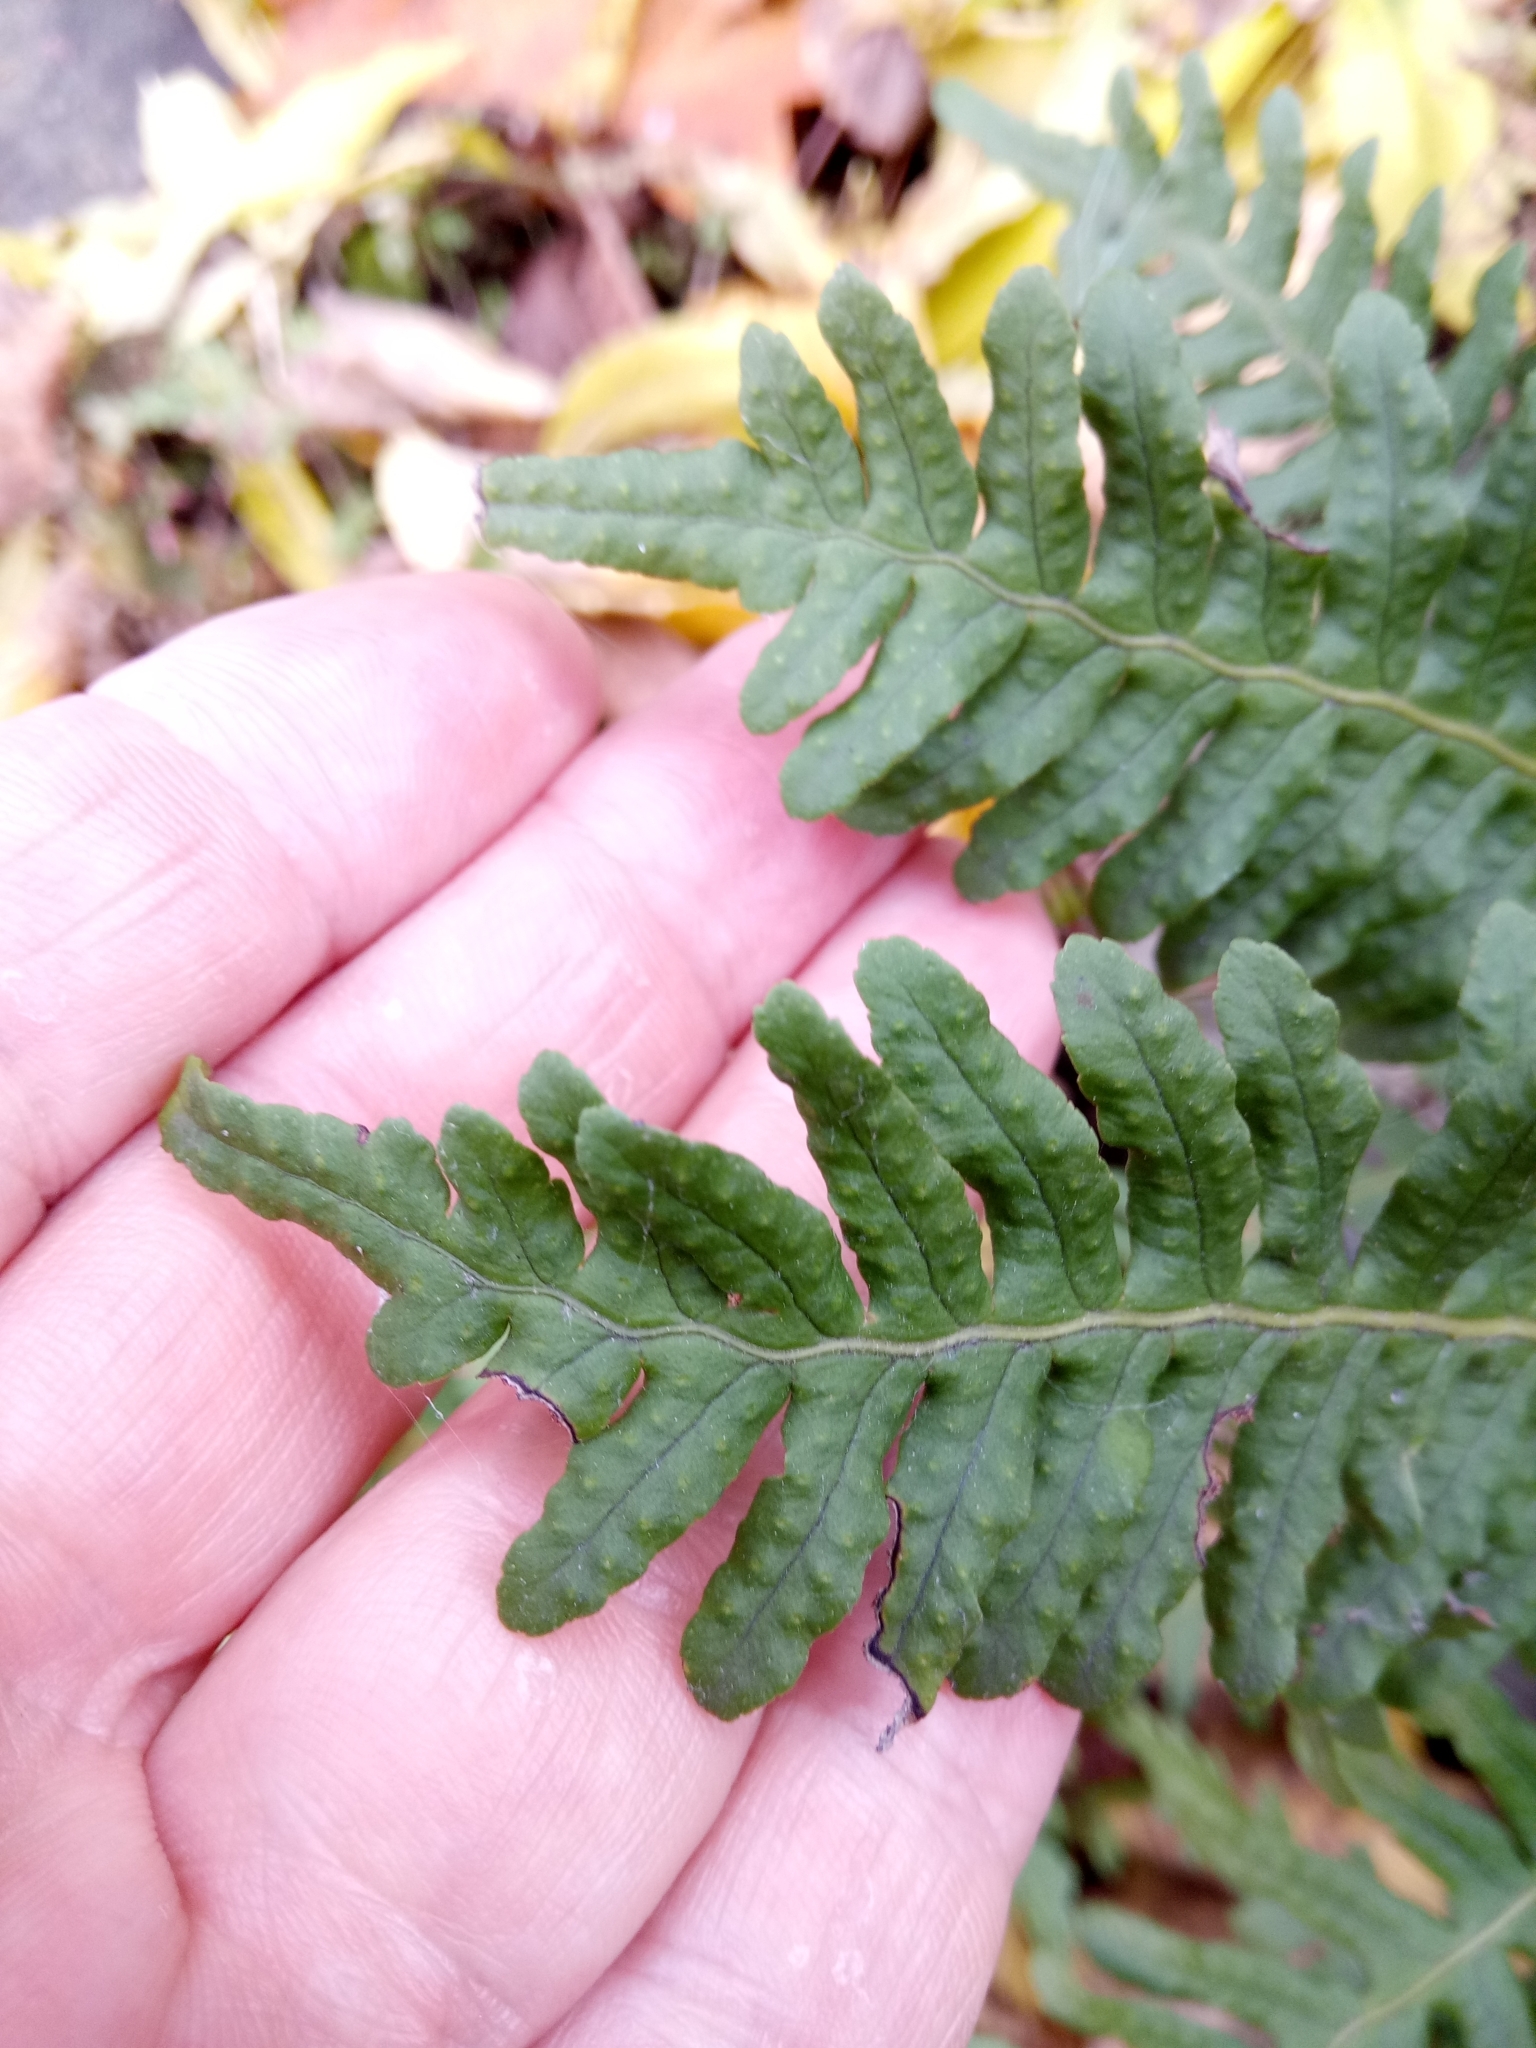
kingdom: Plantae
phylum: Tracheophyta
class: Polypodiopsida
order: Polypodiales
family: Polypodiaceae
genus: Polypodium
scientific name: Polypodium vulgare
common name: Common polypody
